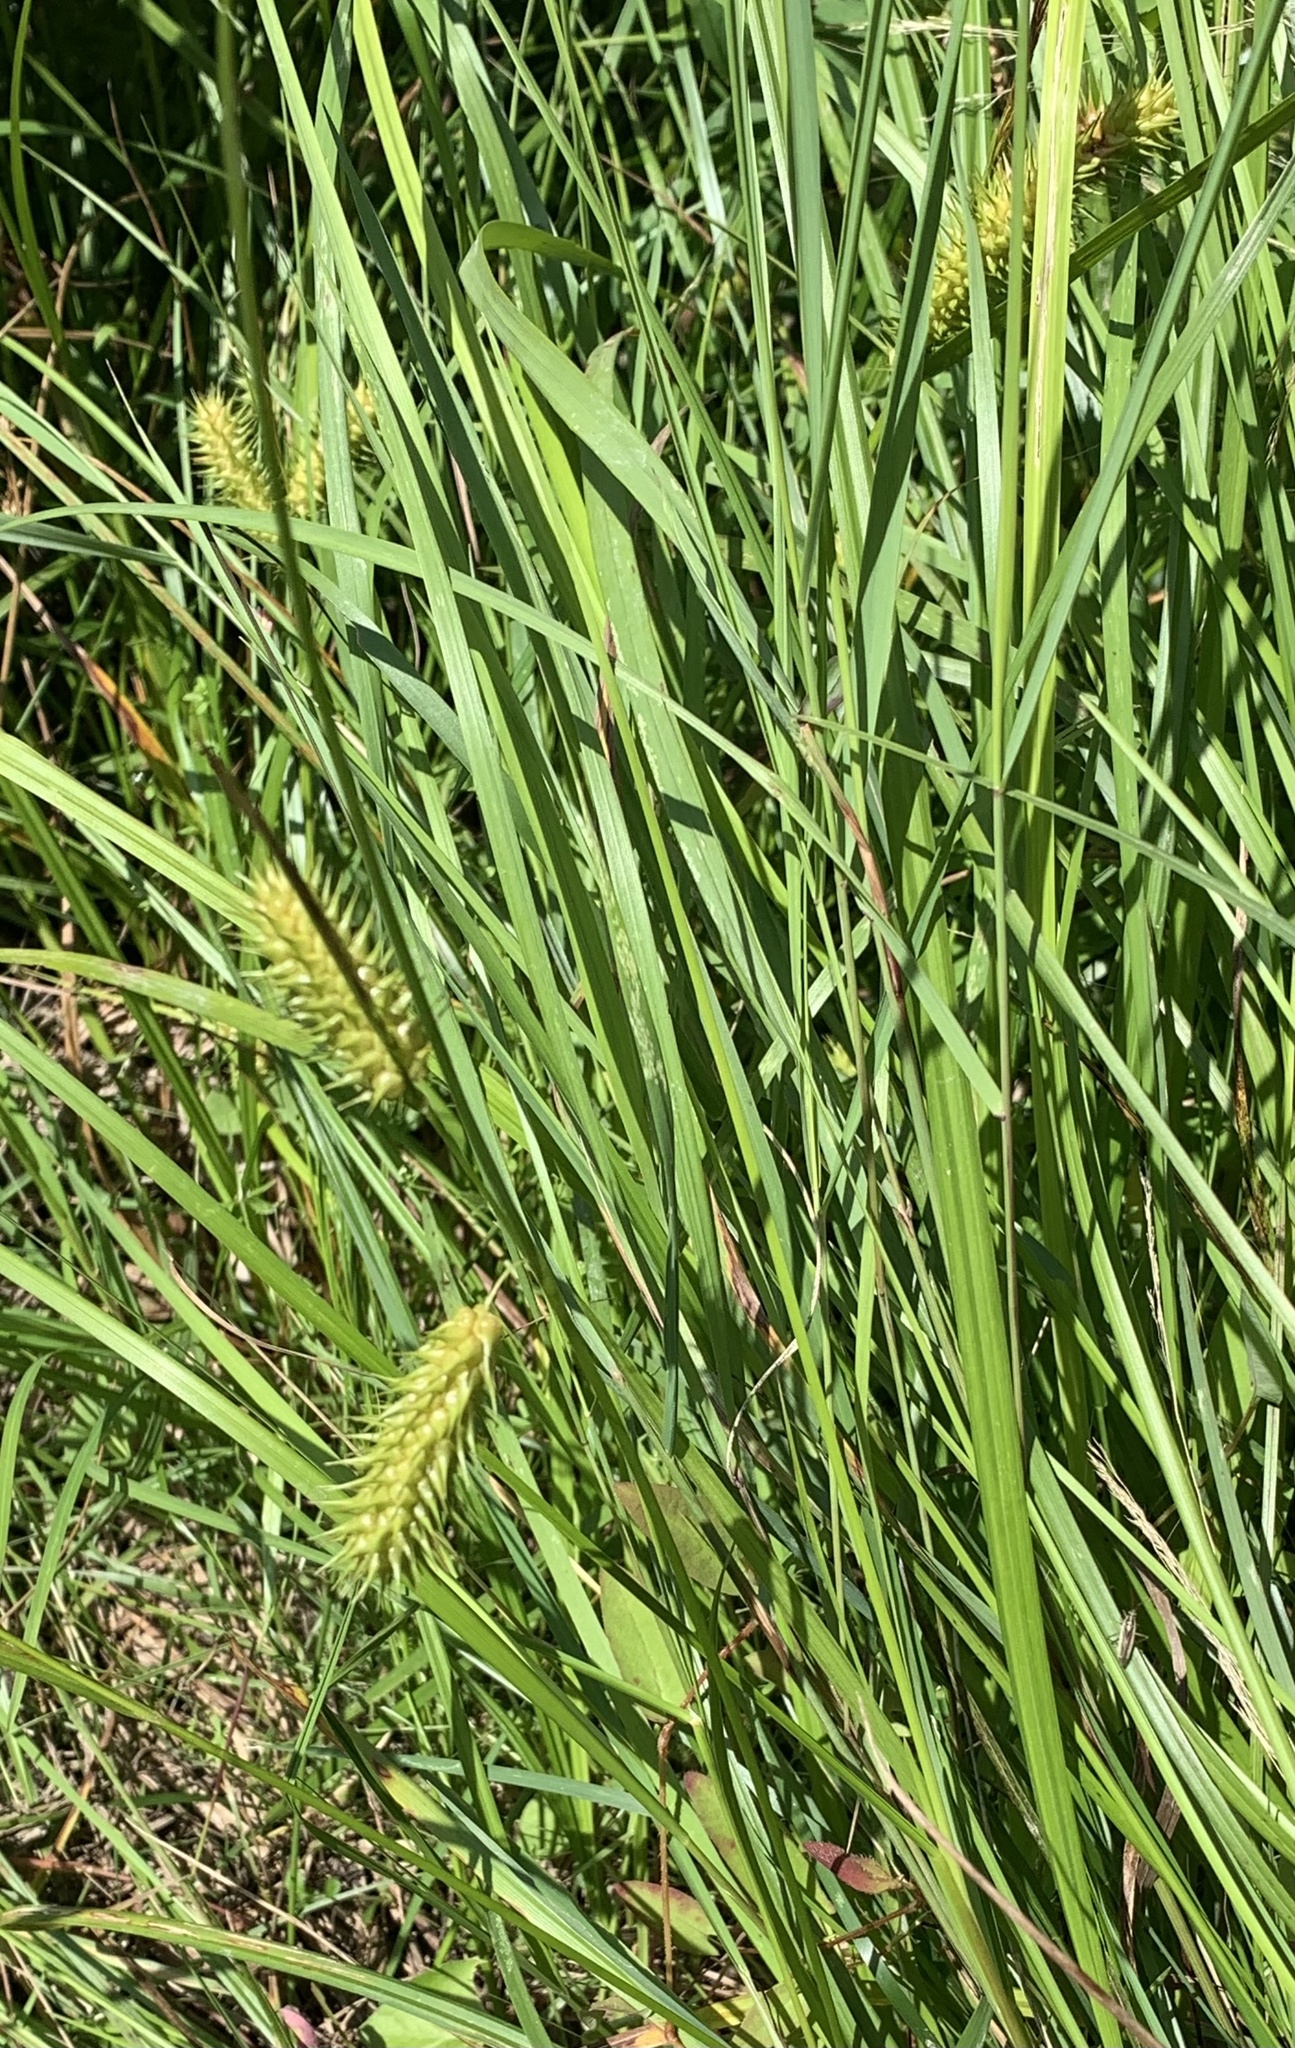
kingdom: Plantae
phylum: Tracheophyta
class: Liliopsida
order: Poales
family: Cyperaceae
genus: Carex
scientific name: Carex lurida
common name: Sallow sedge
